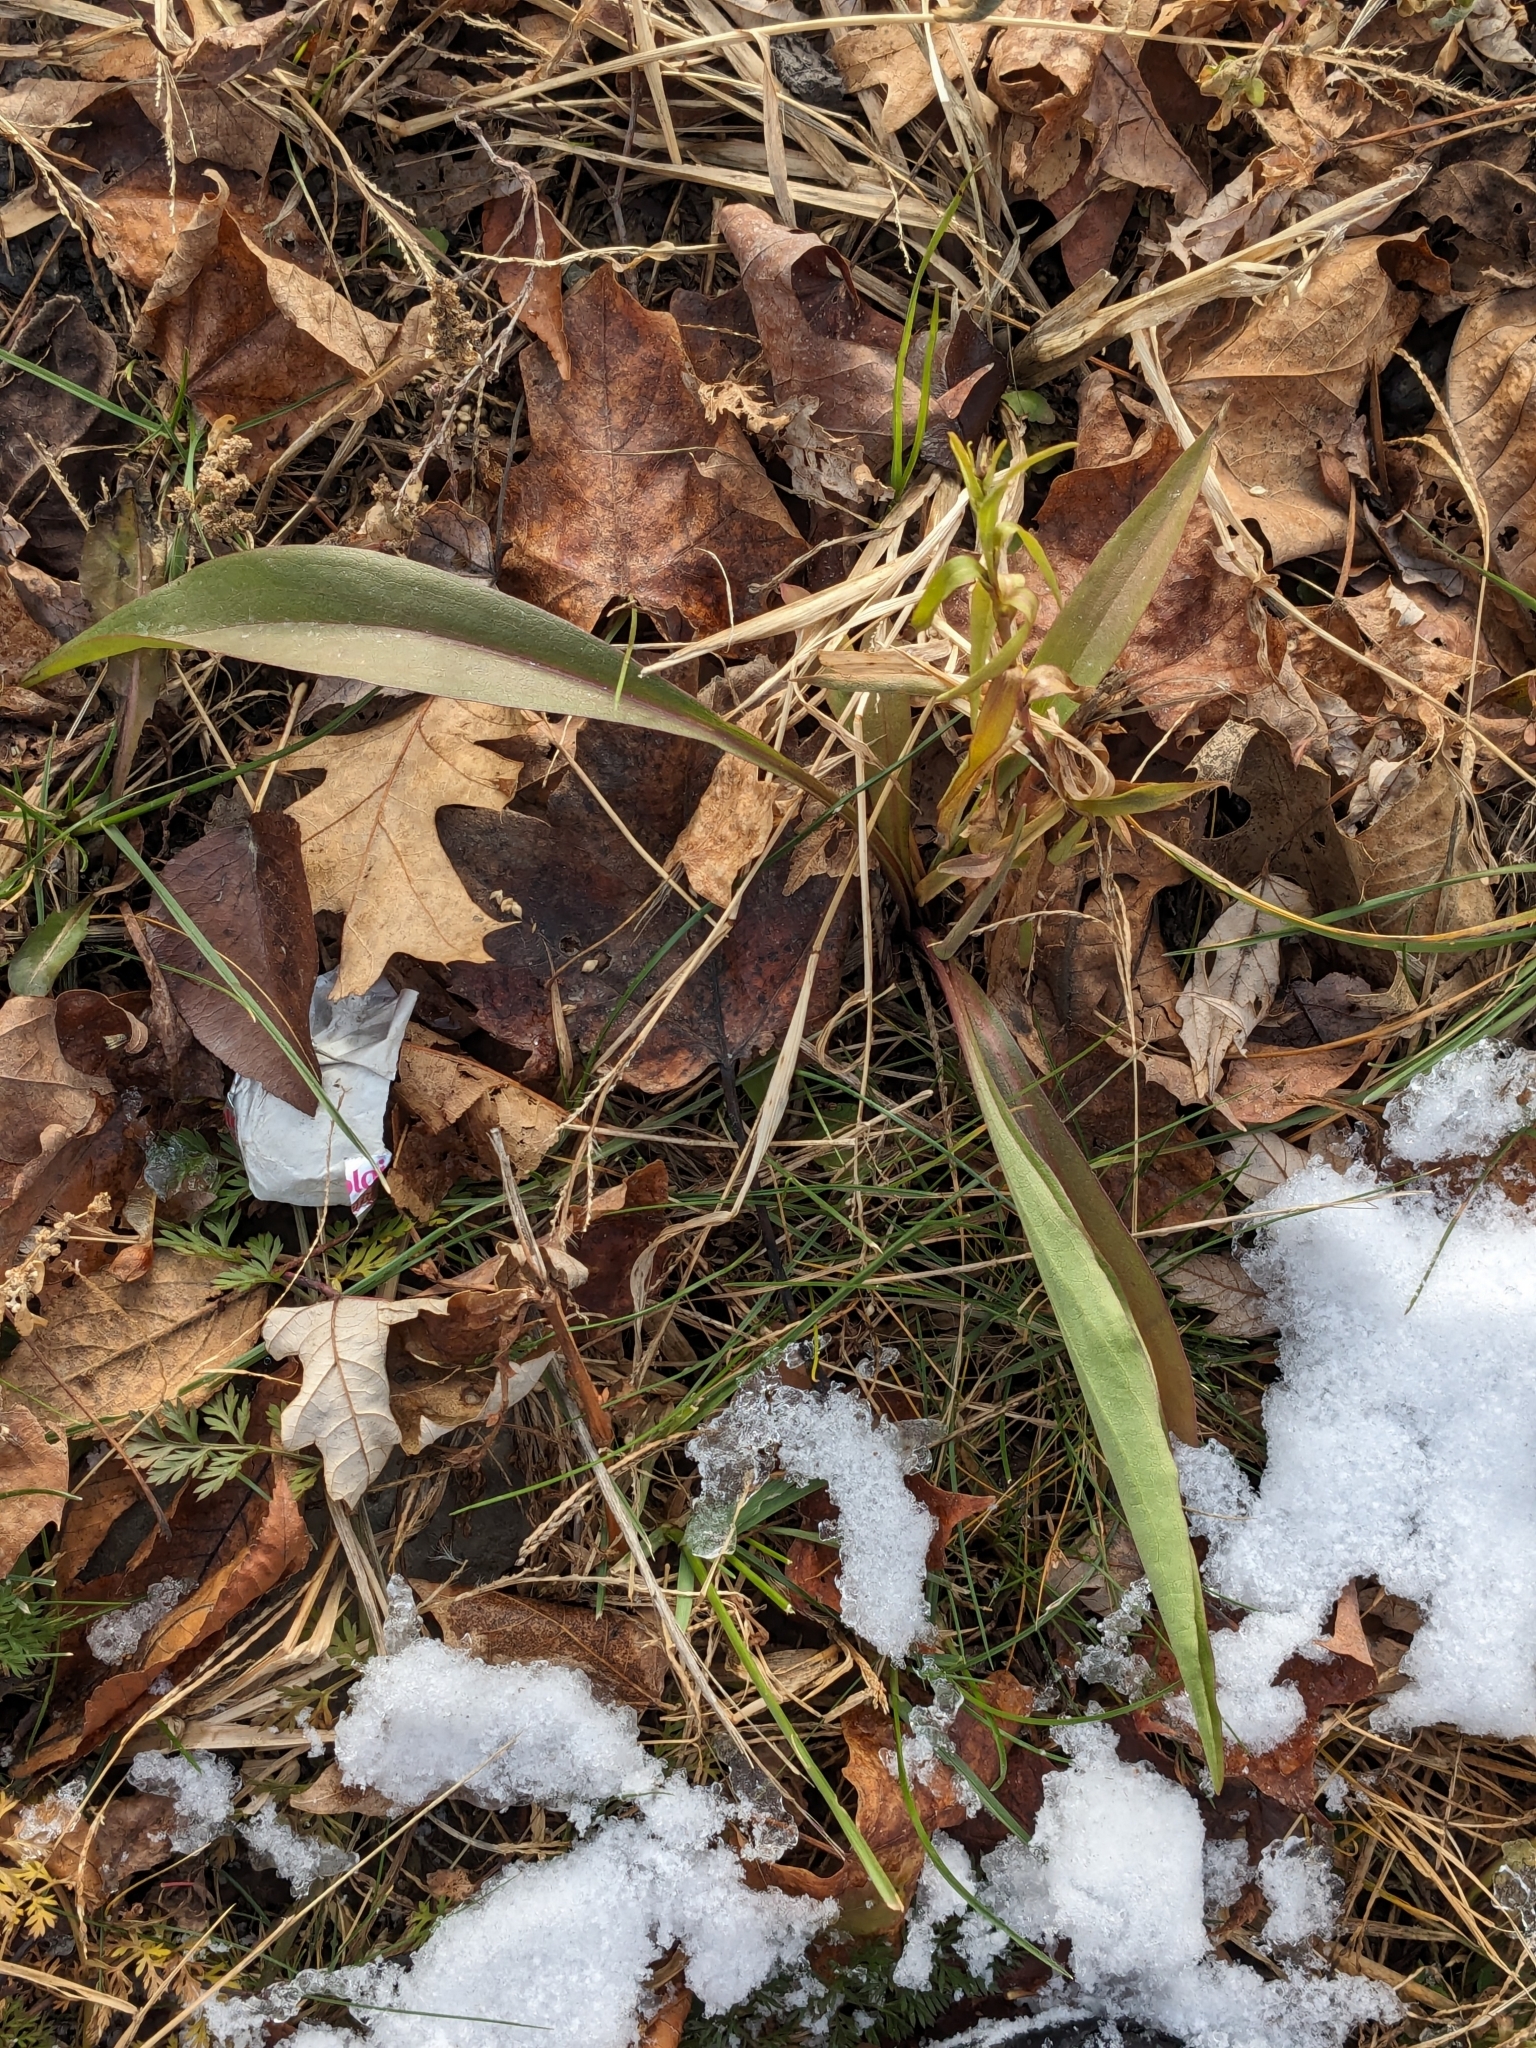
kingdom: Plantae
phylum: Tracheophyta
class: Magnoliopsida
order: Asterales
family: Asteraceae
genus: Solidago
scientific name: Solidago sempervirens
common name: Salt-marsh goldenrod
